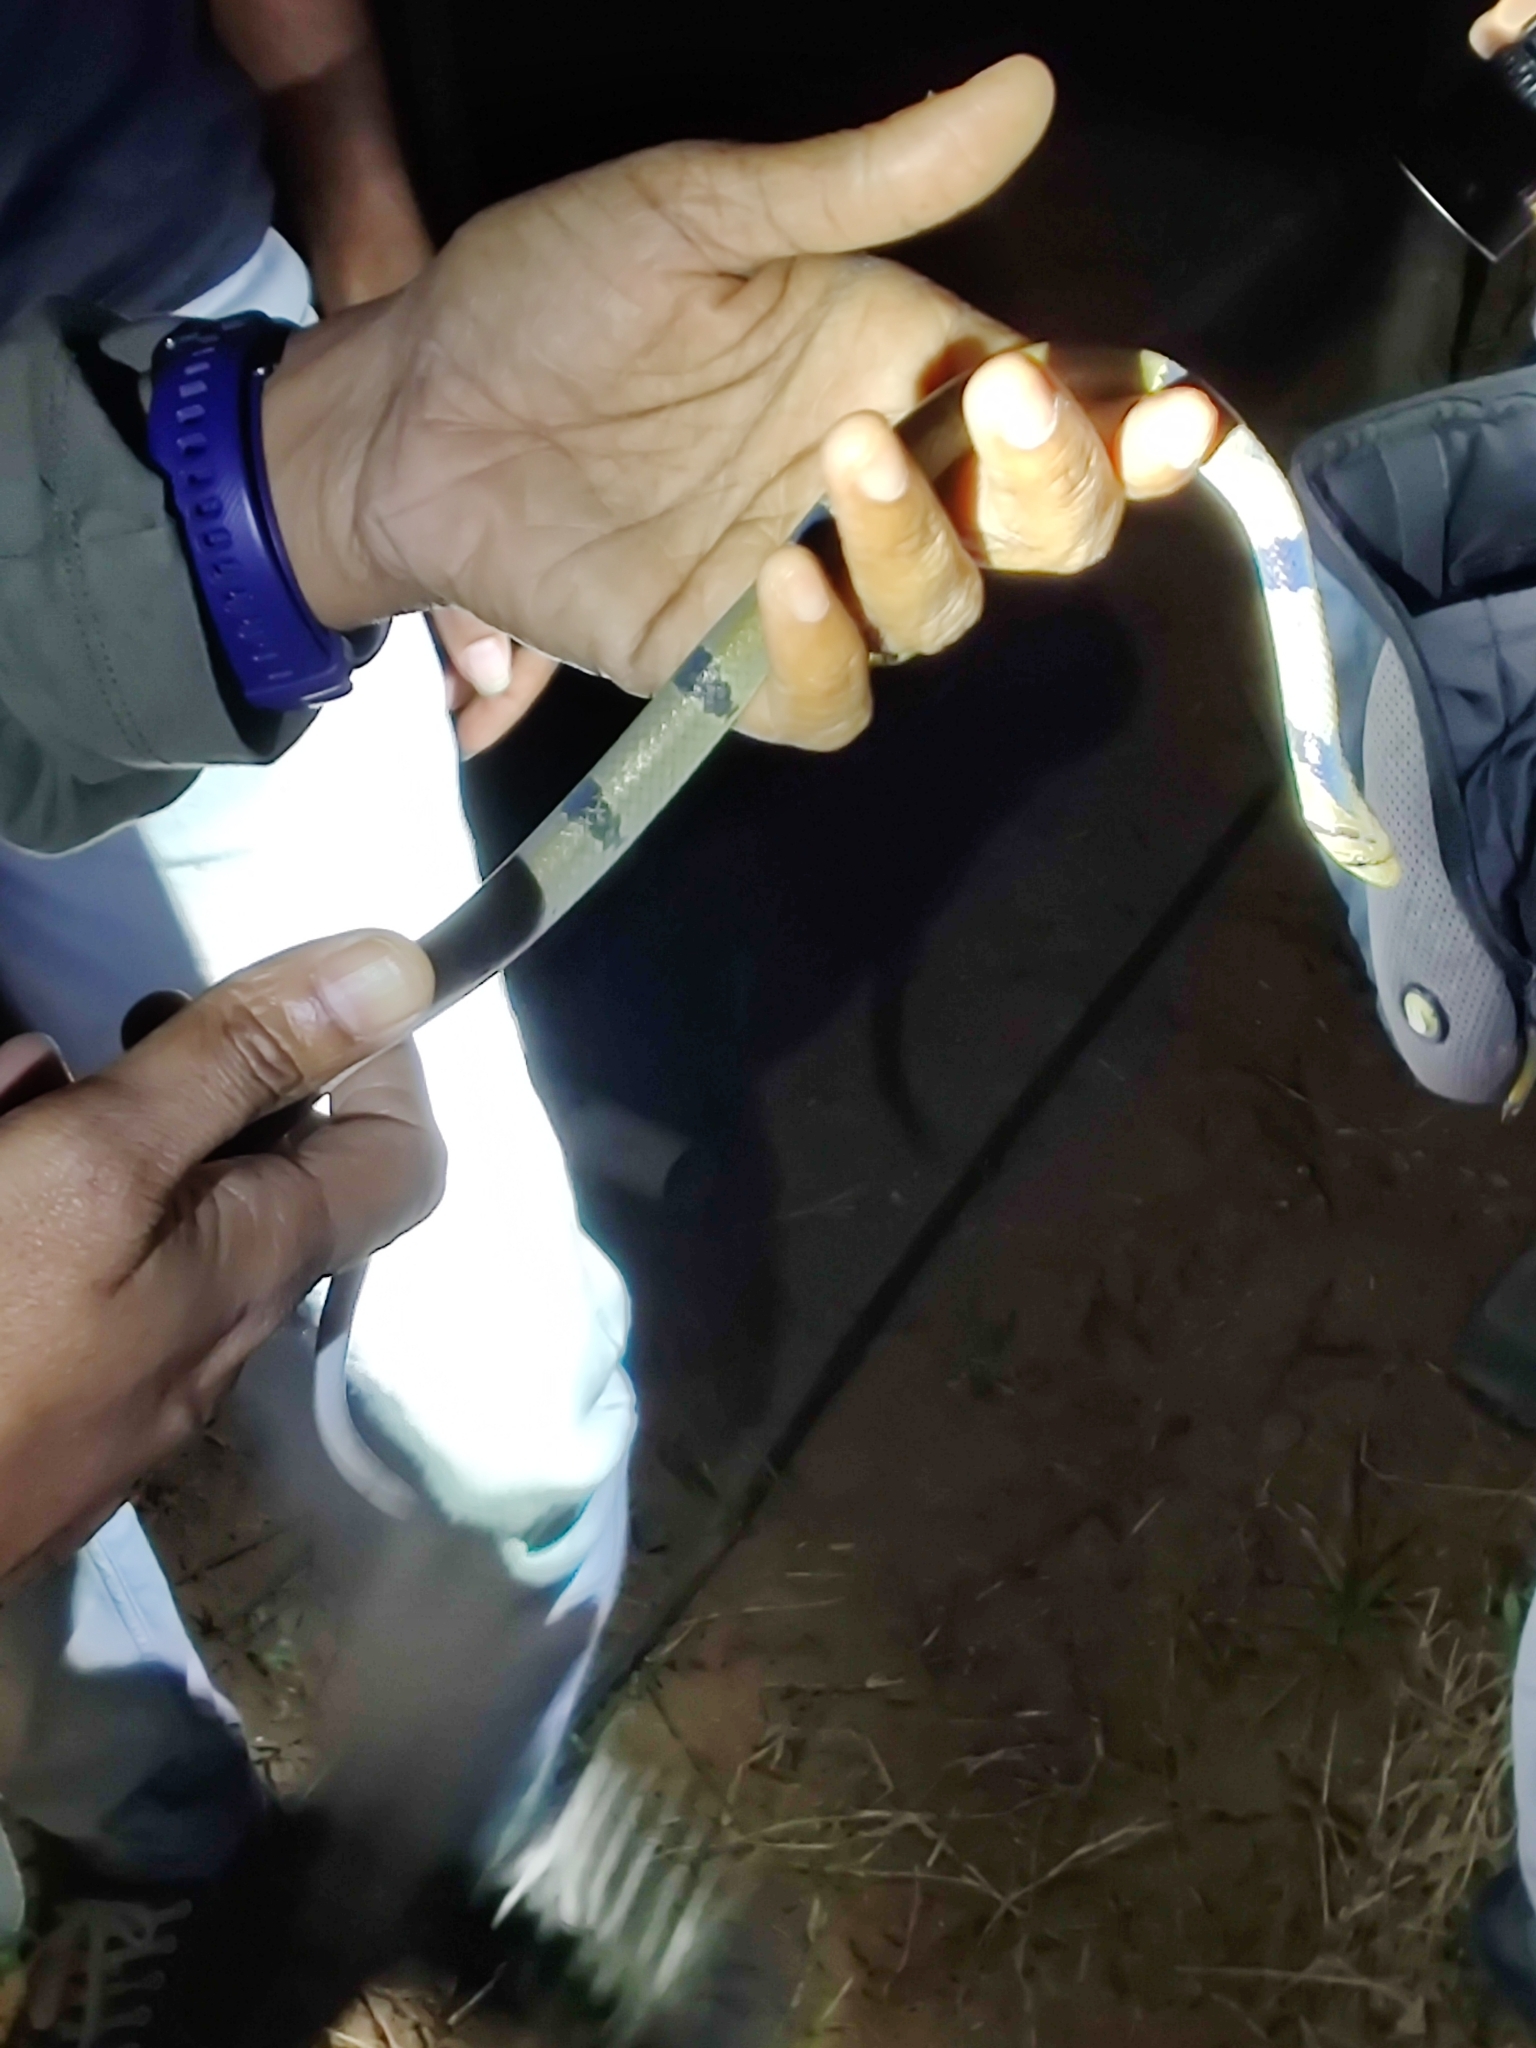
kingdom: Animalia
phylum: Chordata
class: Squamata
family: Colubridae
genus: Oligodon
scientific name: Oligodon arnensis
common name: Banded kukri
